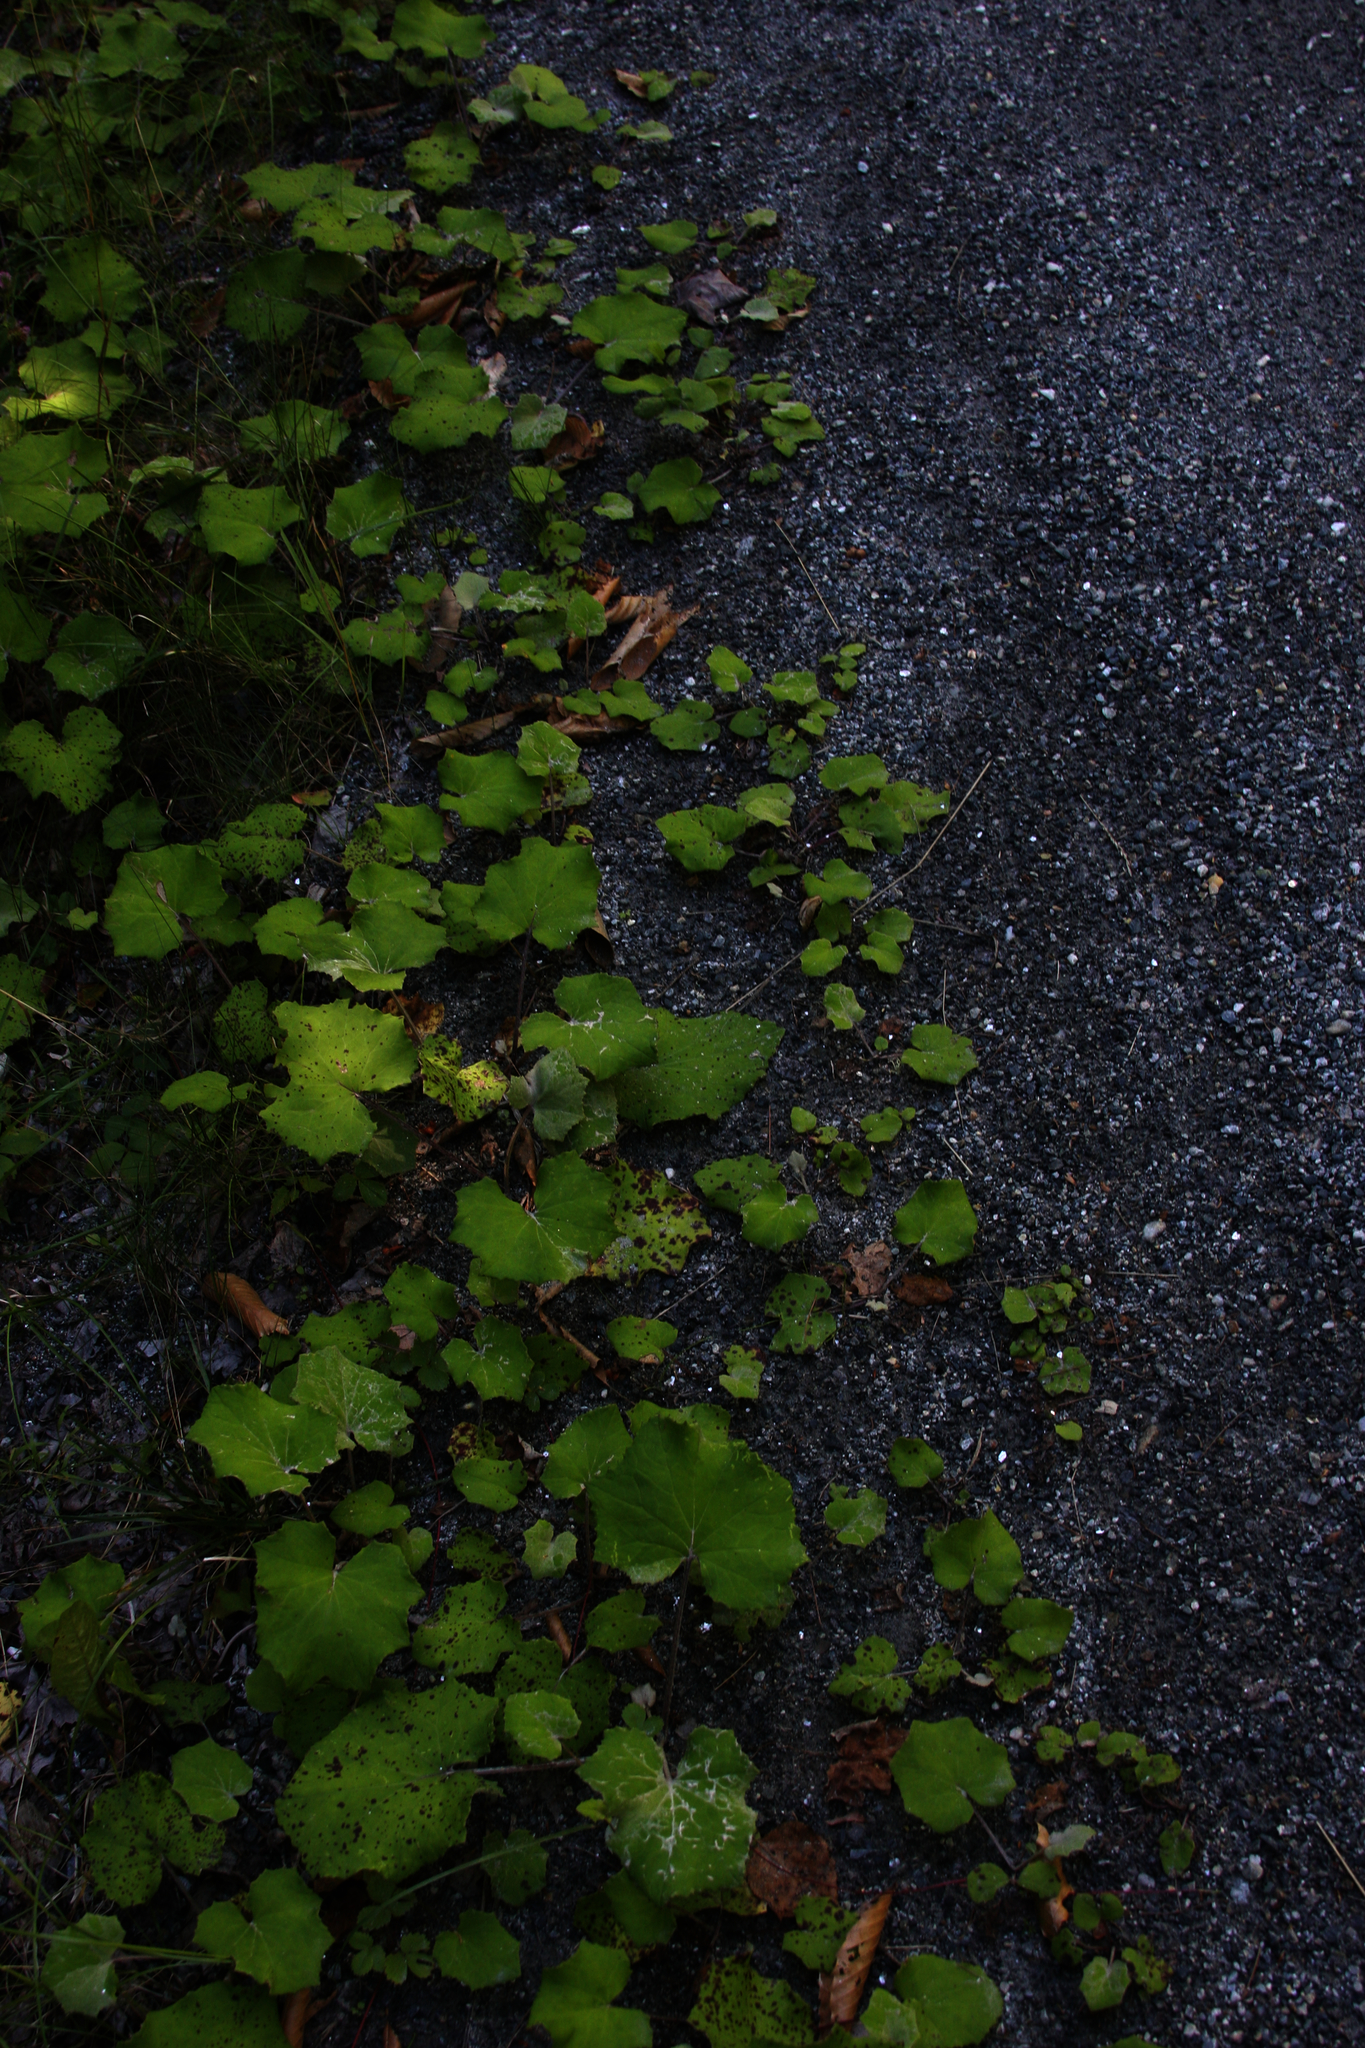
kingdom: Plantae
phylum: Tracheophyta
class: Magnoliopsida
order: Asterales
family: Asteraceae
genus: Tussilago
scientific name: Tussilago farfara
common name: Coltsfoot
